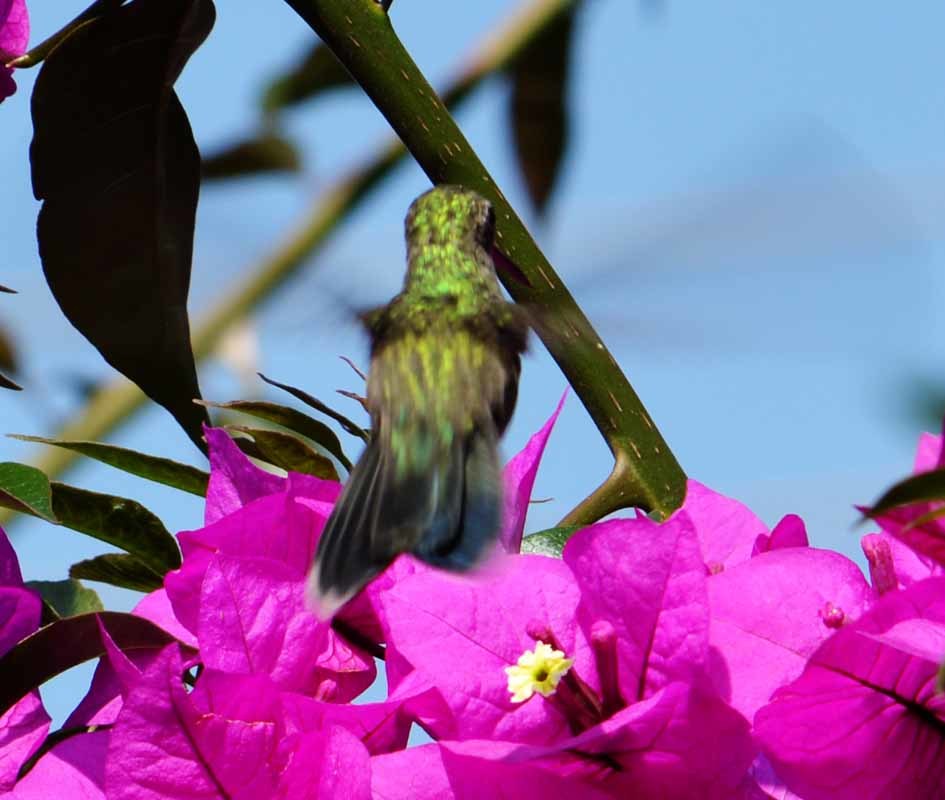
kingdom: Animalia
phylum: Chordata
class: Aves
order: Apodiformes
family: Trochilidae
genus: Cynanthus
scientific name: Cynanthus latirostris
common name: Broad-billed hummingbird
